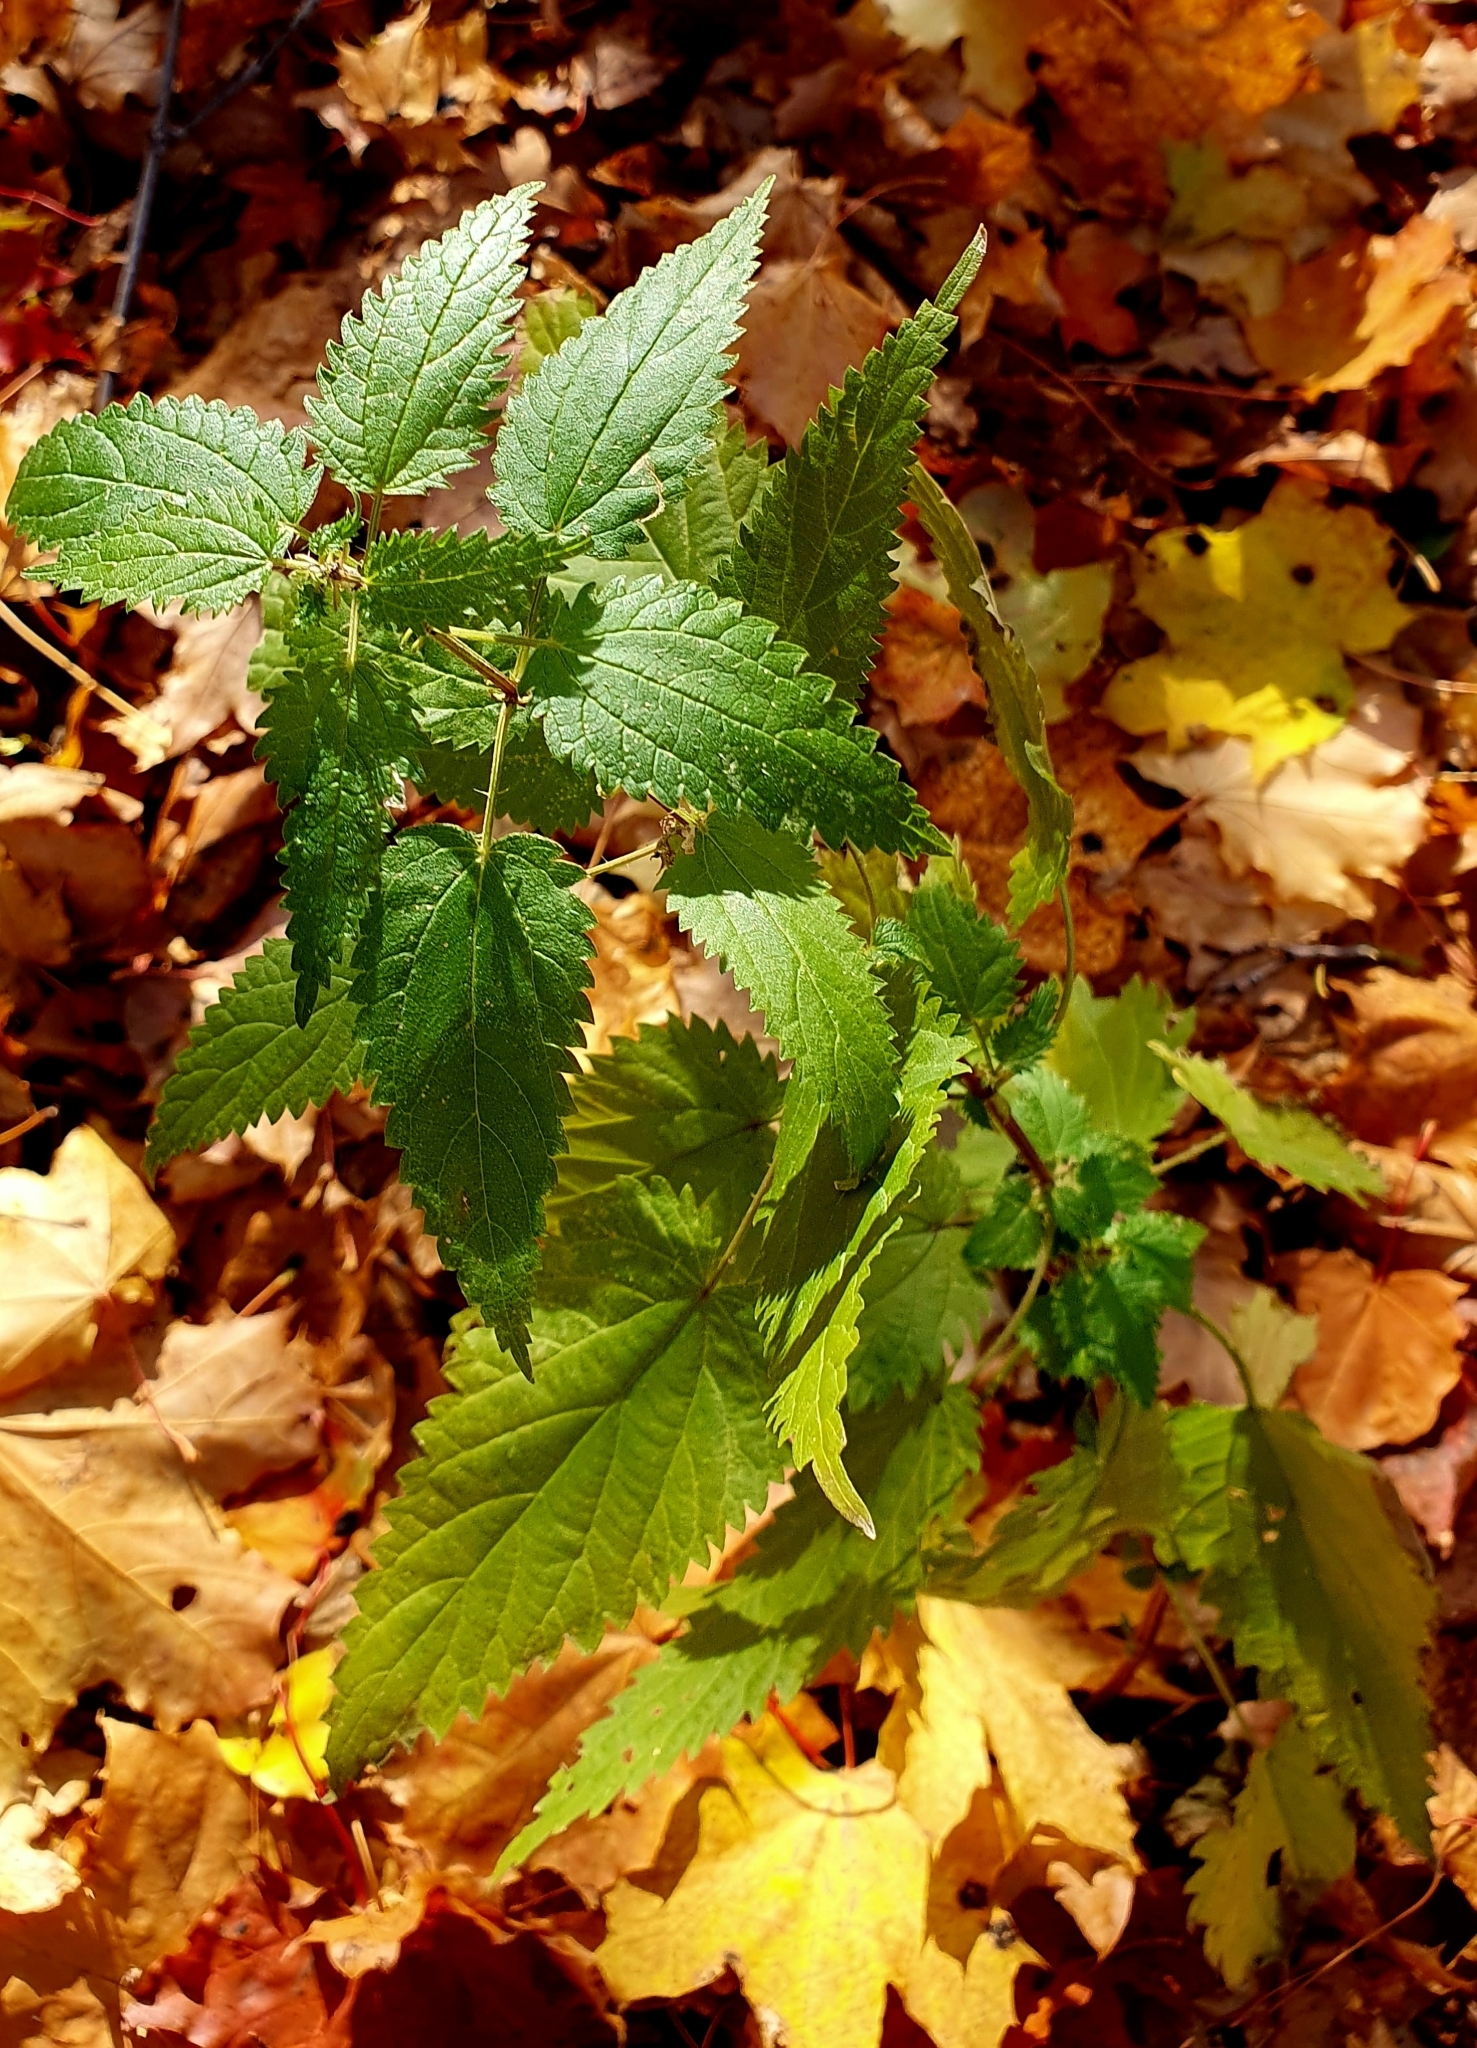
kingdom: Plantae
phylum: Tracheophyta
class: Magnoliopsida
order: Rosales
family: Urticaceae
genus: Urtica
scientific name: Urtica dioica
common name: Common nettle
